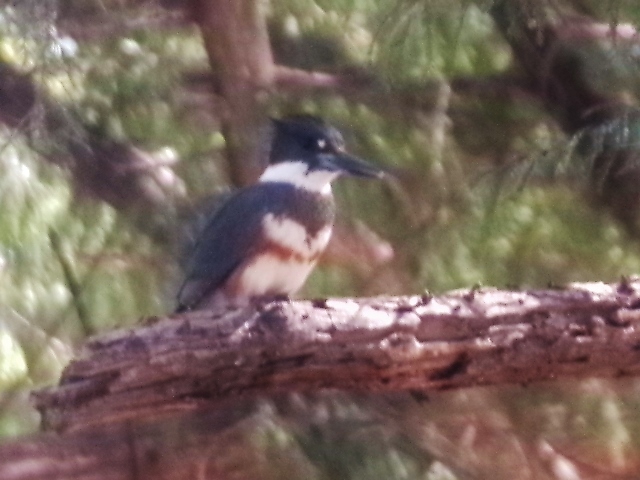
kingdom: Animalia
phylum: Chordata
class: Aves
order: Coraciiformes
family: Alcedinidae
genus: Megaceryle
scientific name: Megaceryle alcyon
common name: Belted kingfisher
